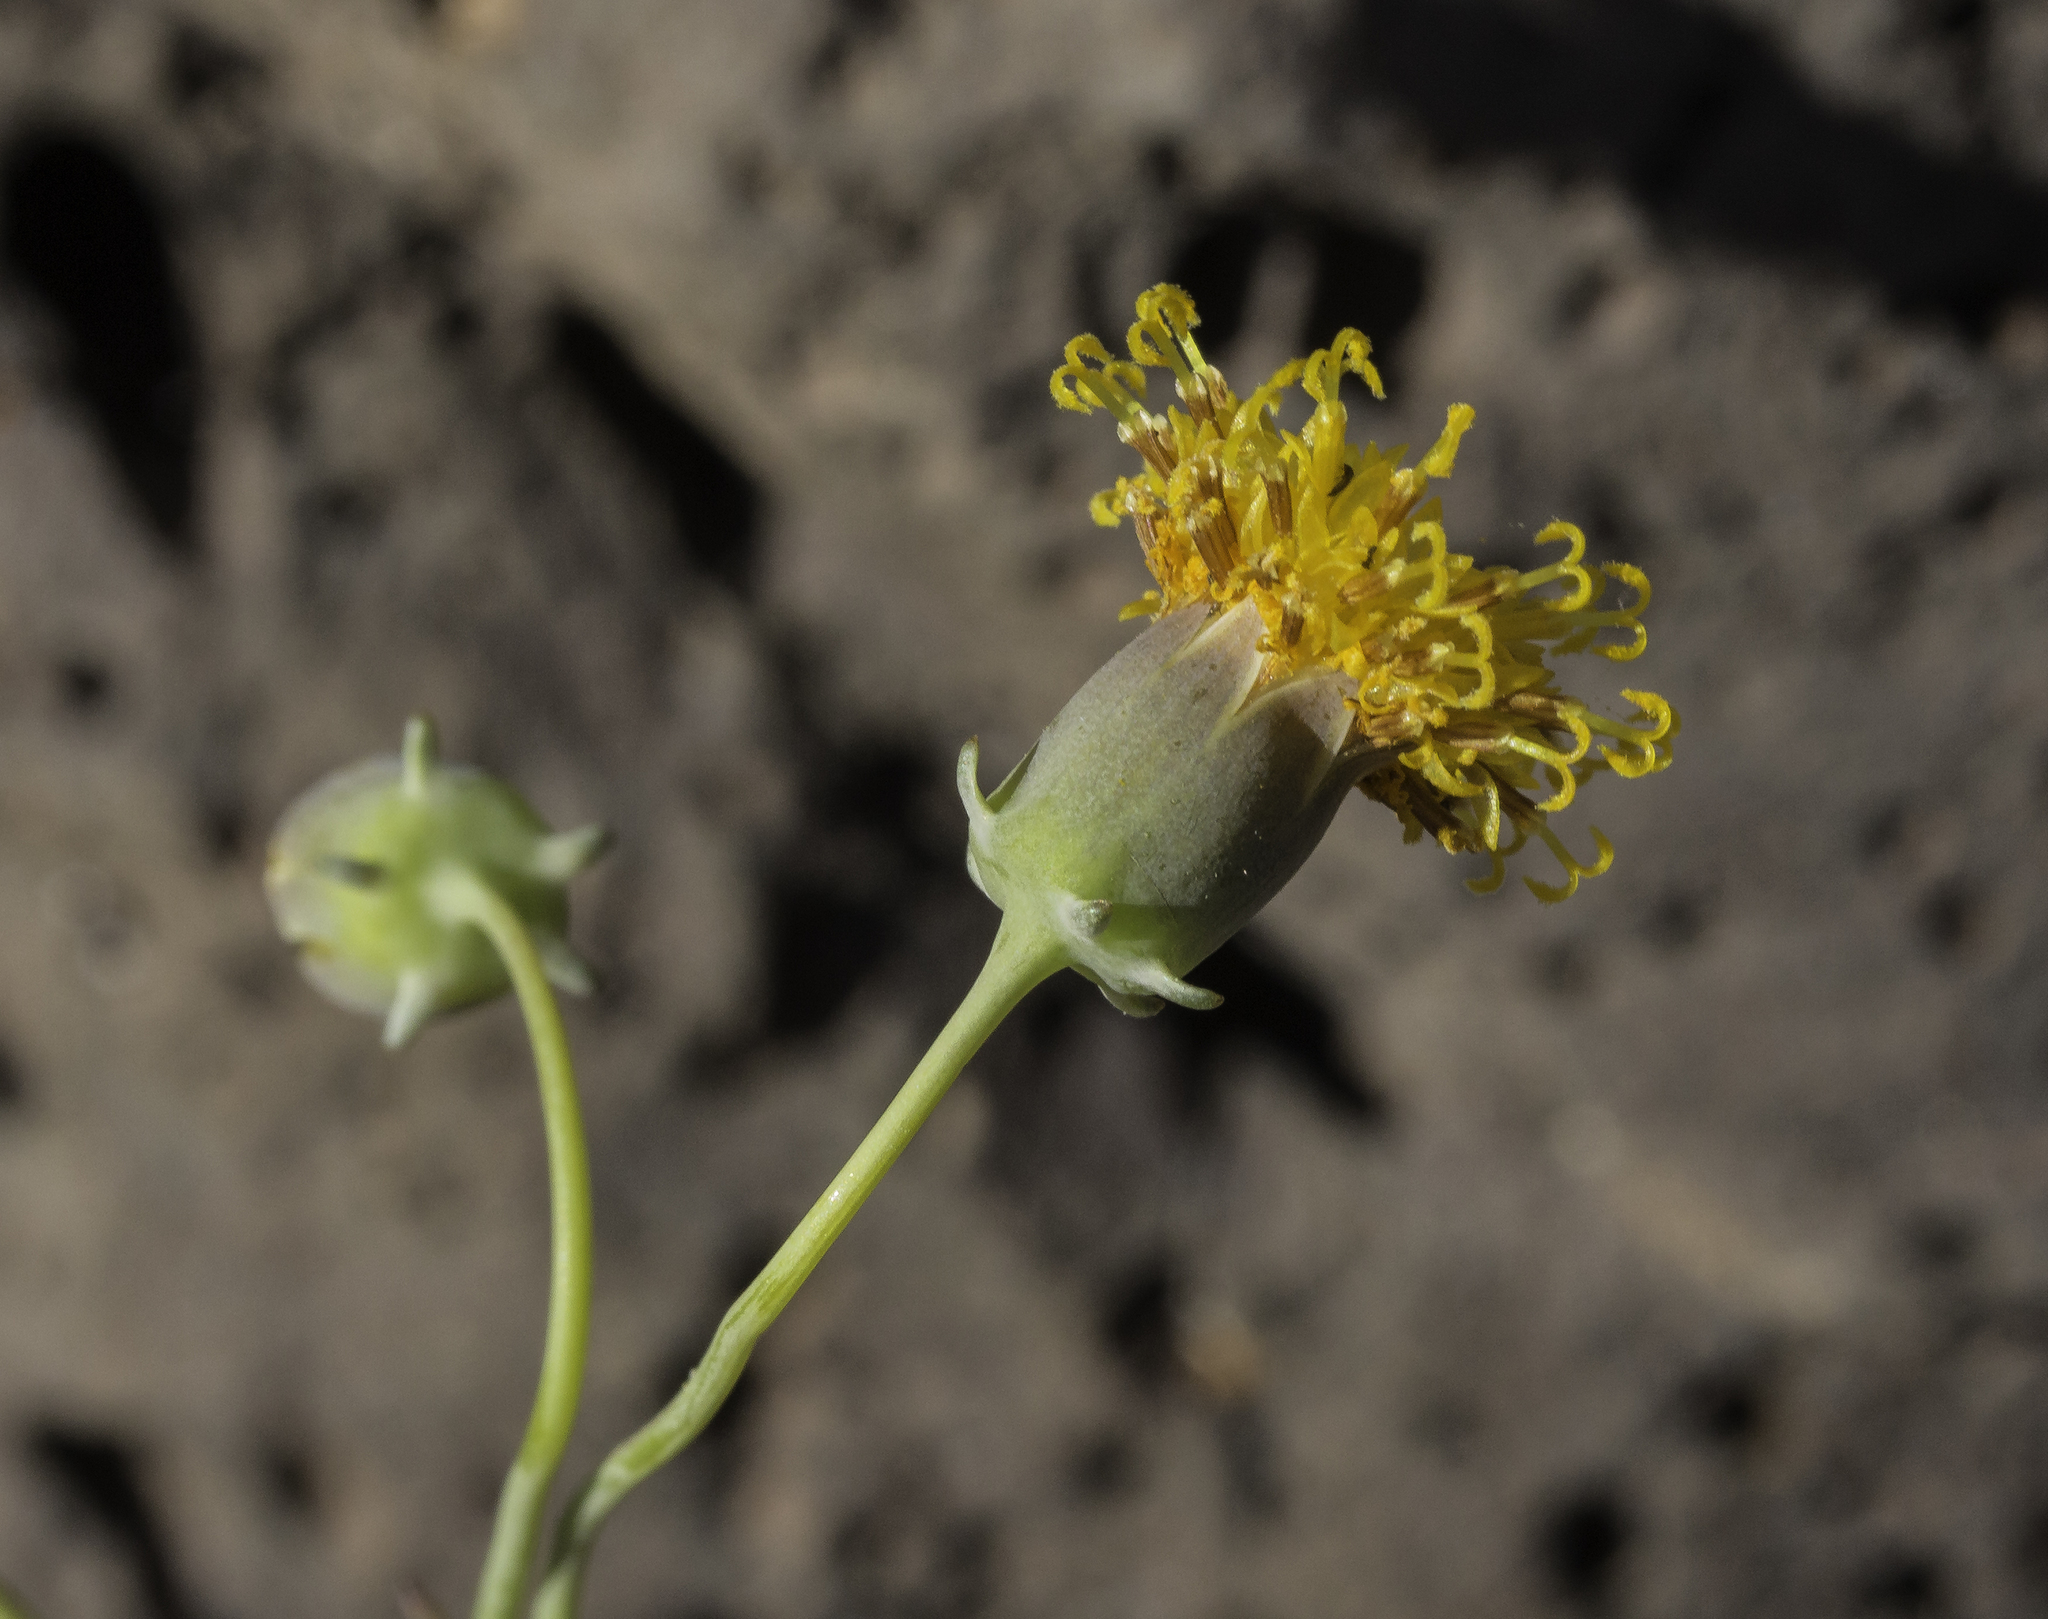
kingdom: Plantae
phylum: Tracheophyta
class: Magnoliopsida
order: Asterales
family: Asteraceae
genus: Thelesperma
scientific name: Thelesperma megapotamicum
